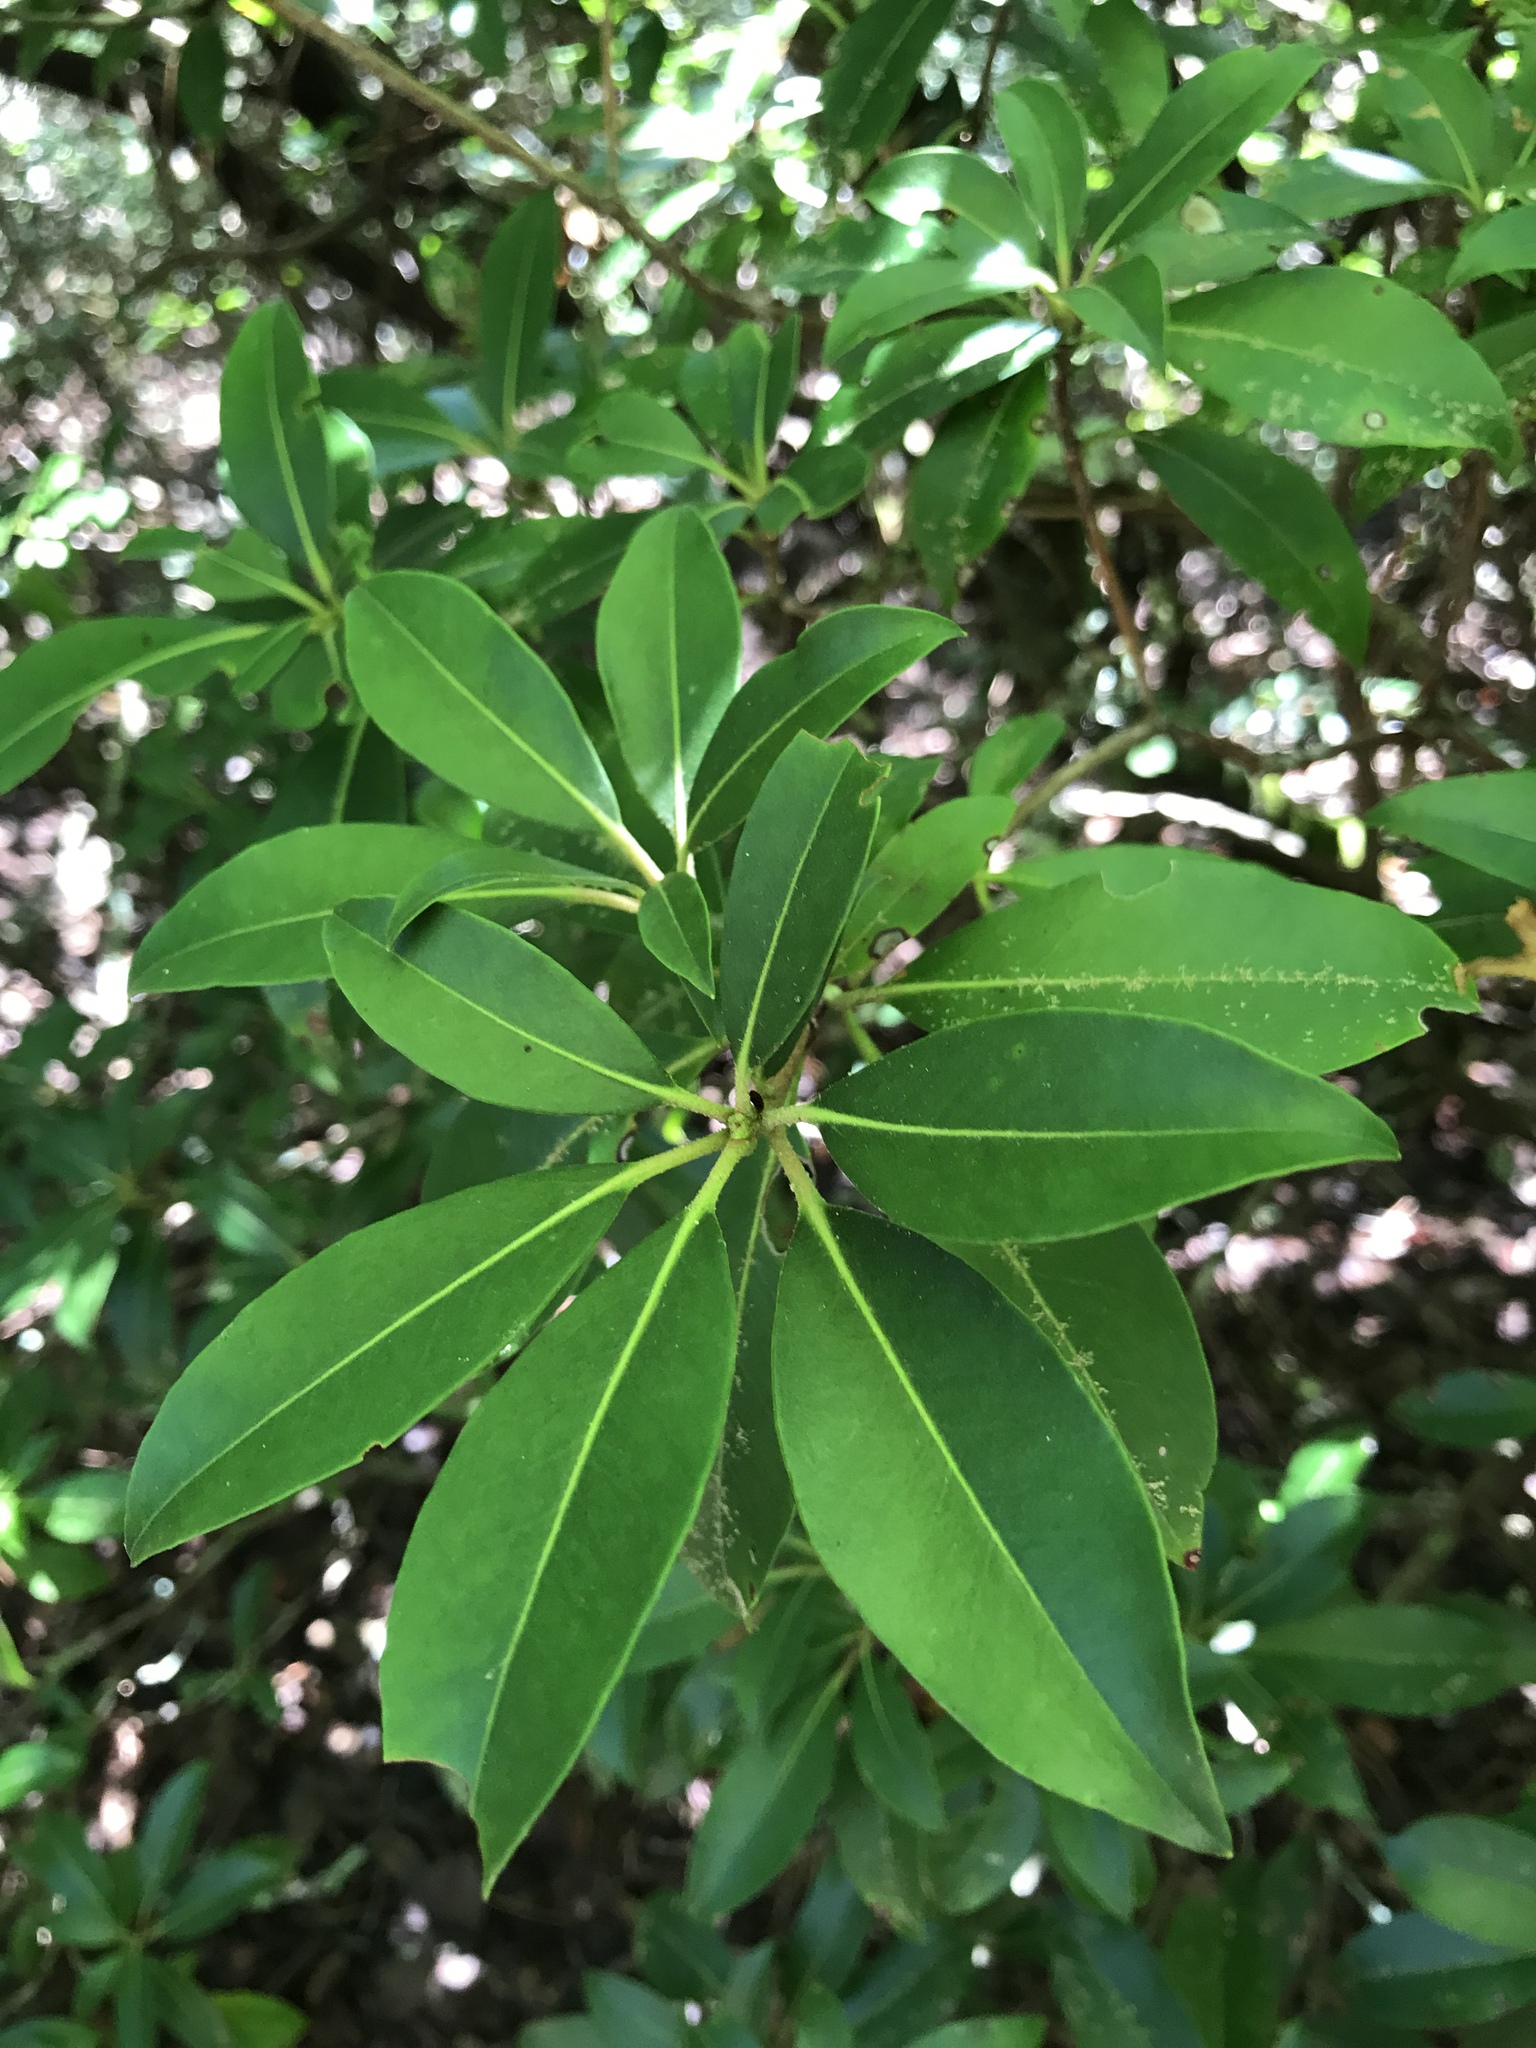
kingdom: Plantae
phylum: Tracheophyta
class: Magnoliopsida
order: Ericales
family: Ericaceae
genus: Kalmia
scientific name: Kalmia latifolia
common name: Mountain-laurel
